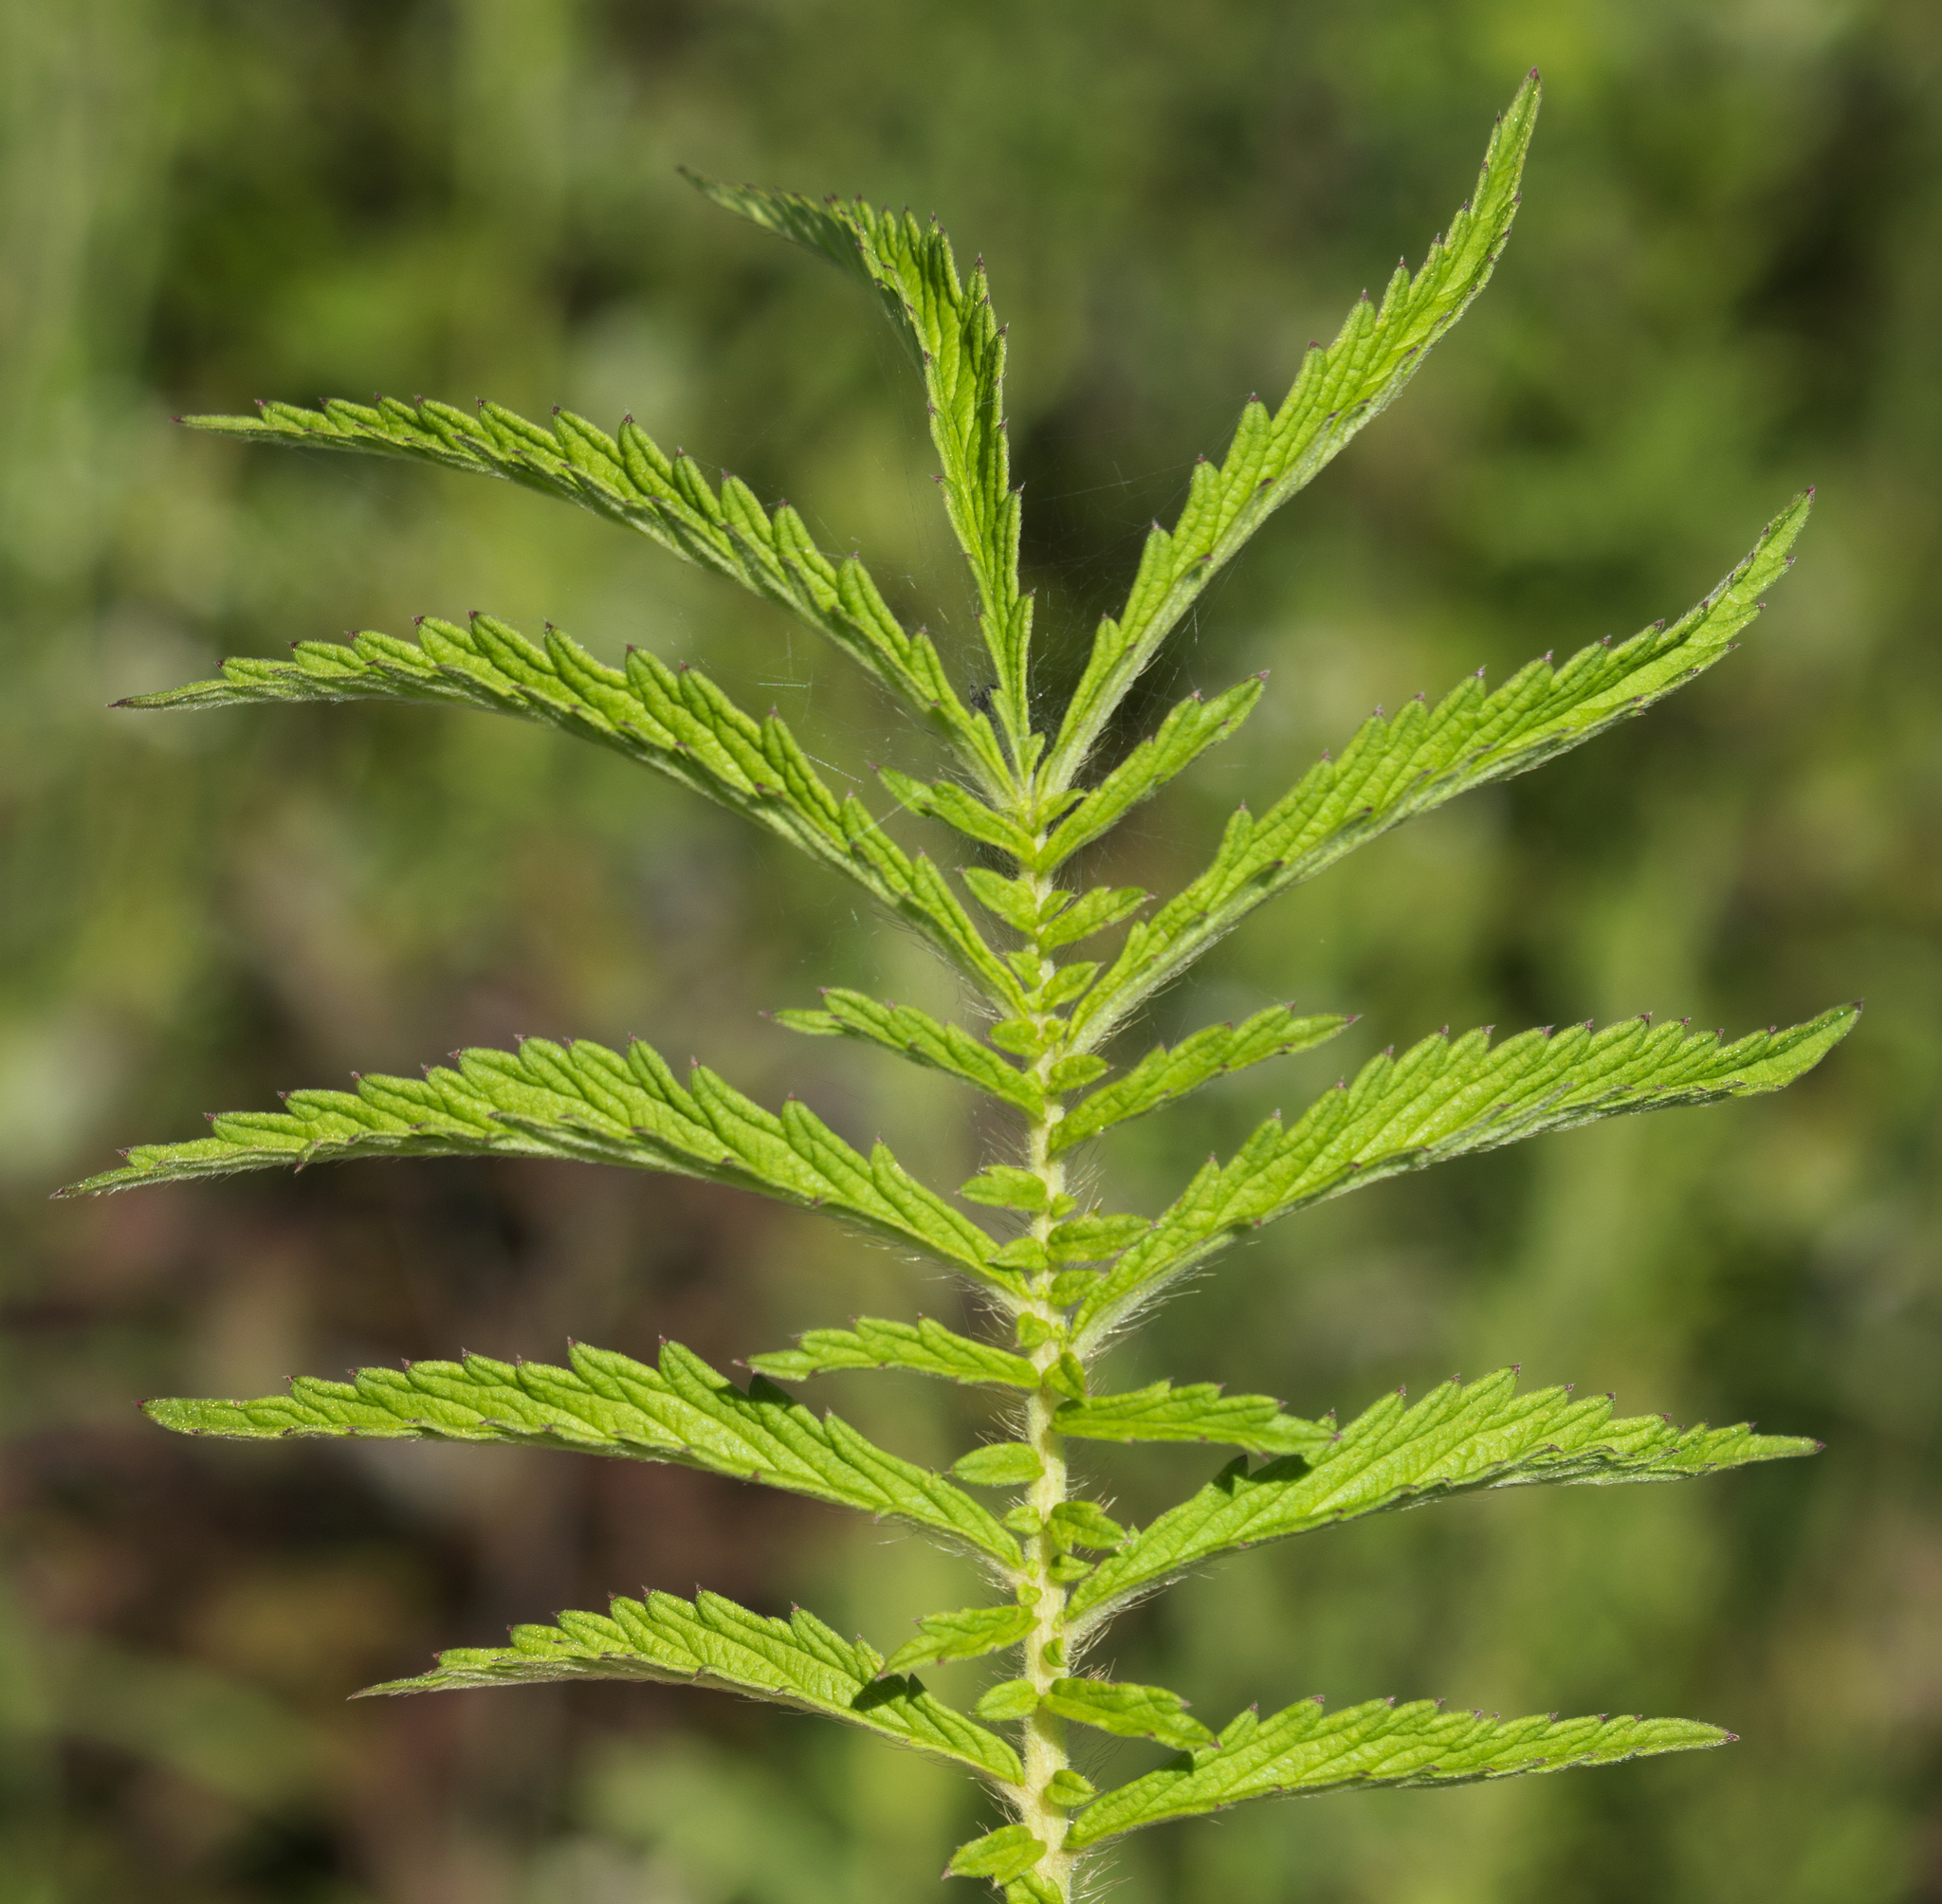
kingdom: Plantae
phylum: Tracheophyta
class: Magnoliopsida
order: Rosales
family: Rosaceae
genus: Agrimonia
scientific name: Agrimonia parviflora
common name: Harvest-lice
